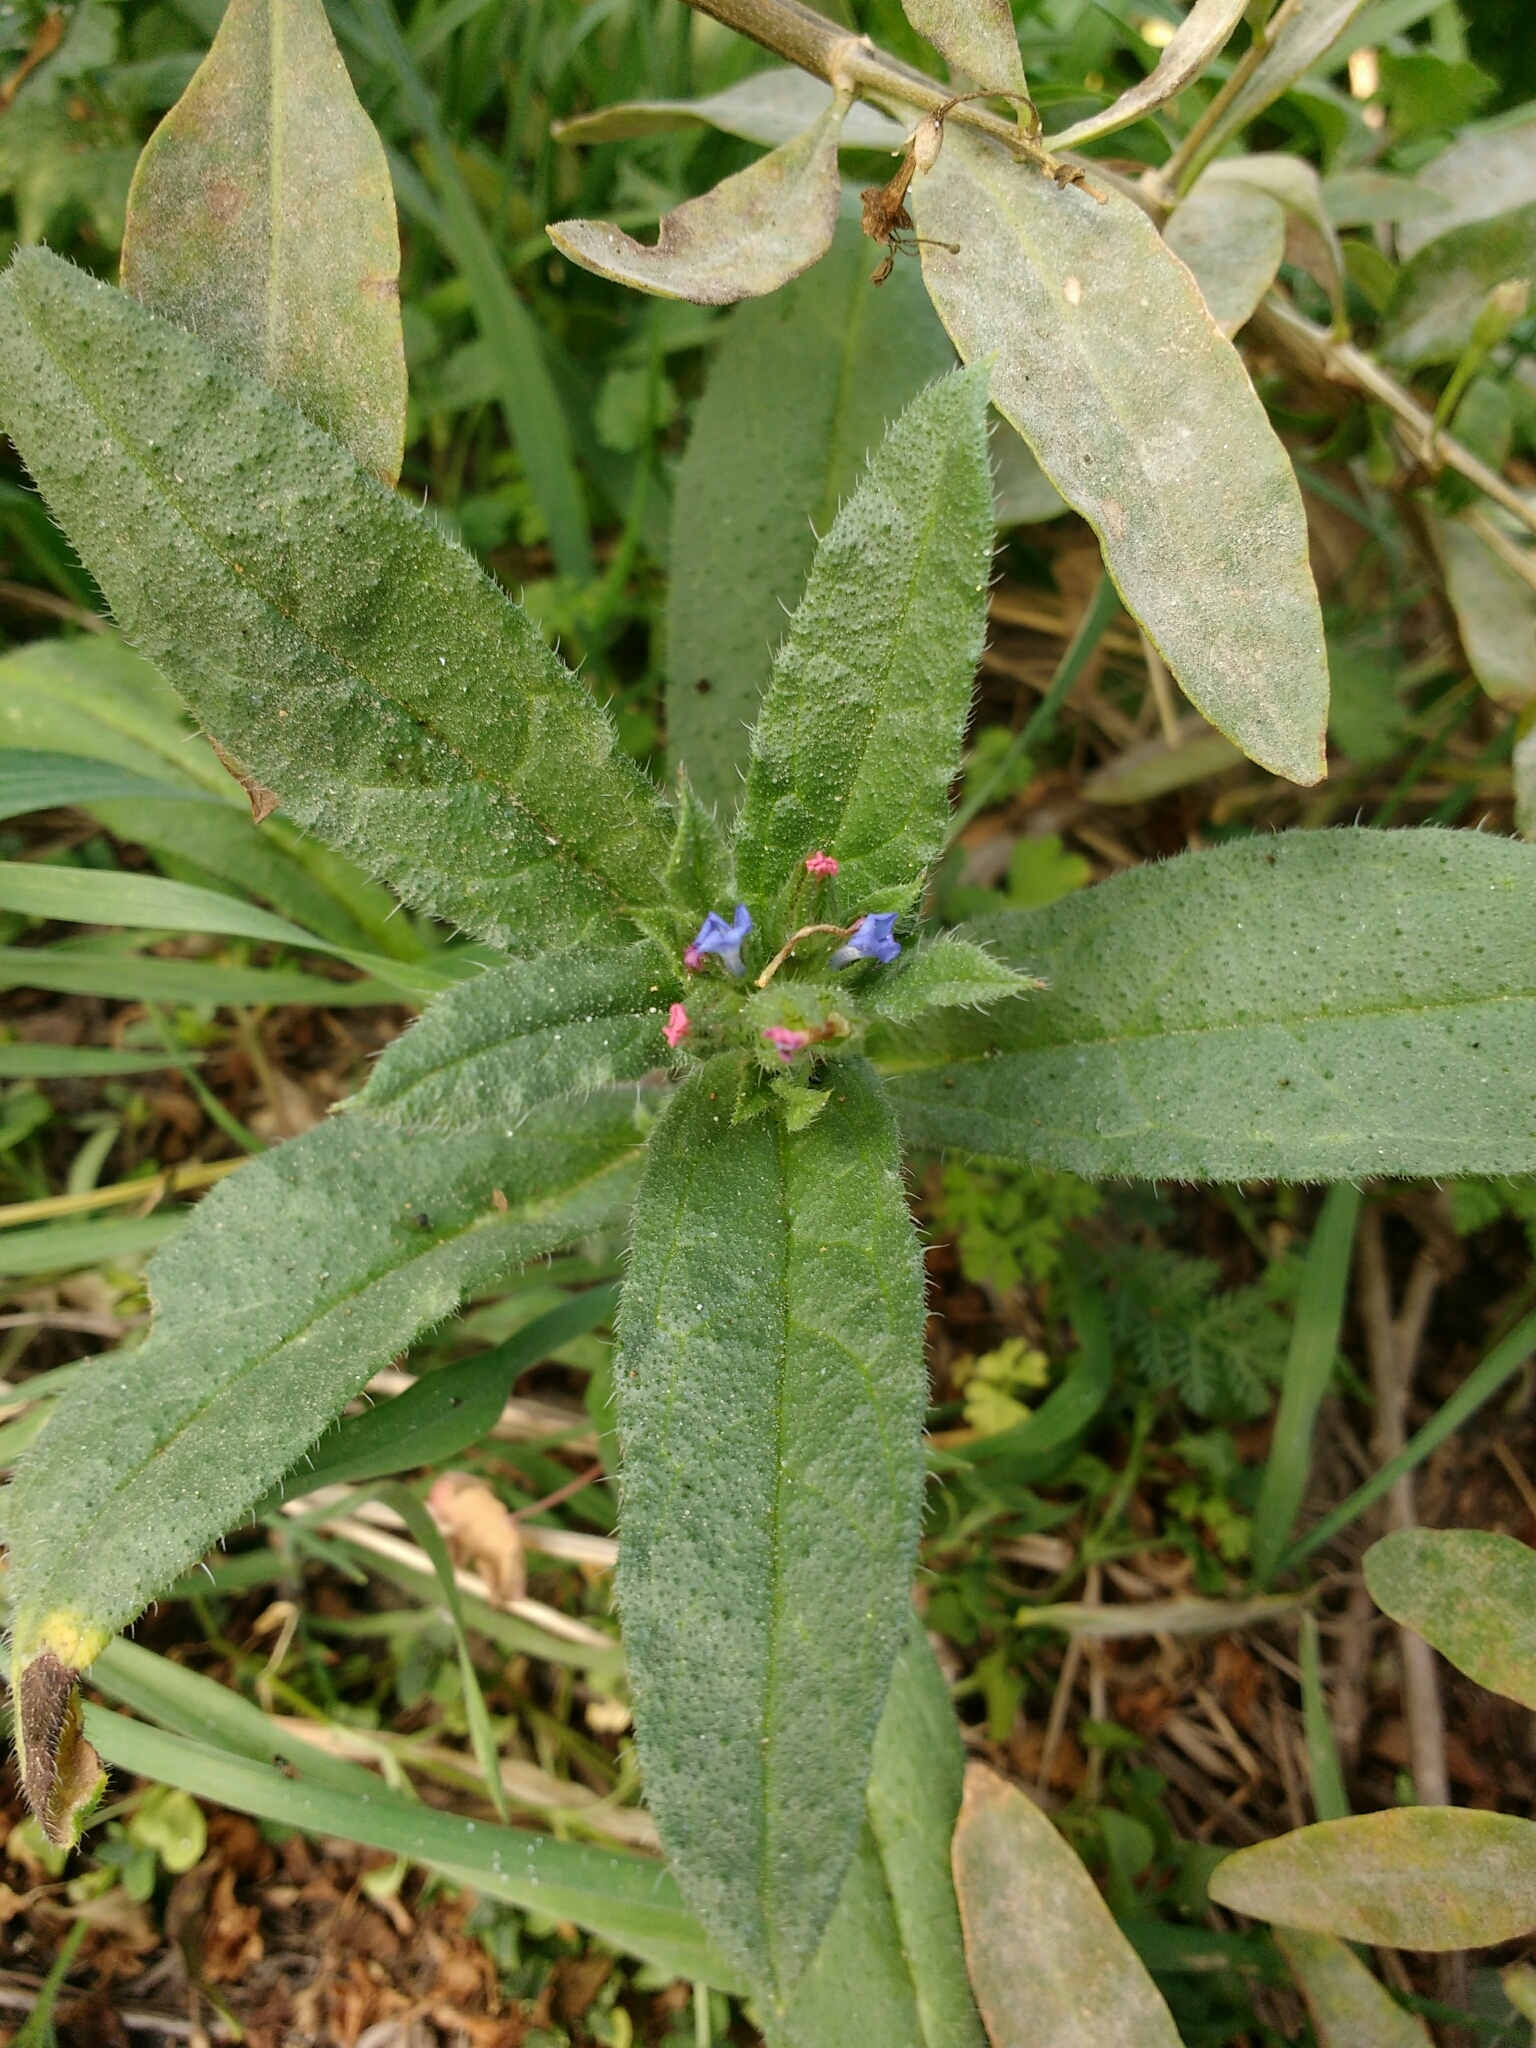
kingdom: Plantae
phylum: Tracheophyta
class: Magnoliopsida
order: Boraginales
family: Boraginaceae
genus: Lycopsis
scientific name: Lycopsis arvensis
